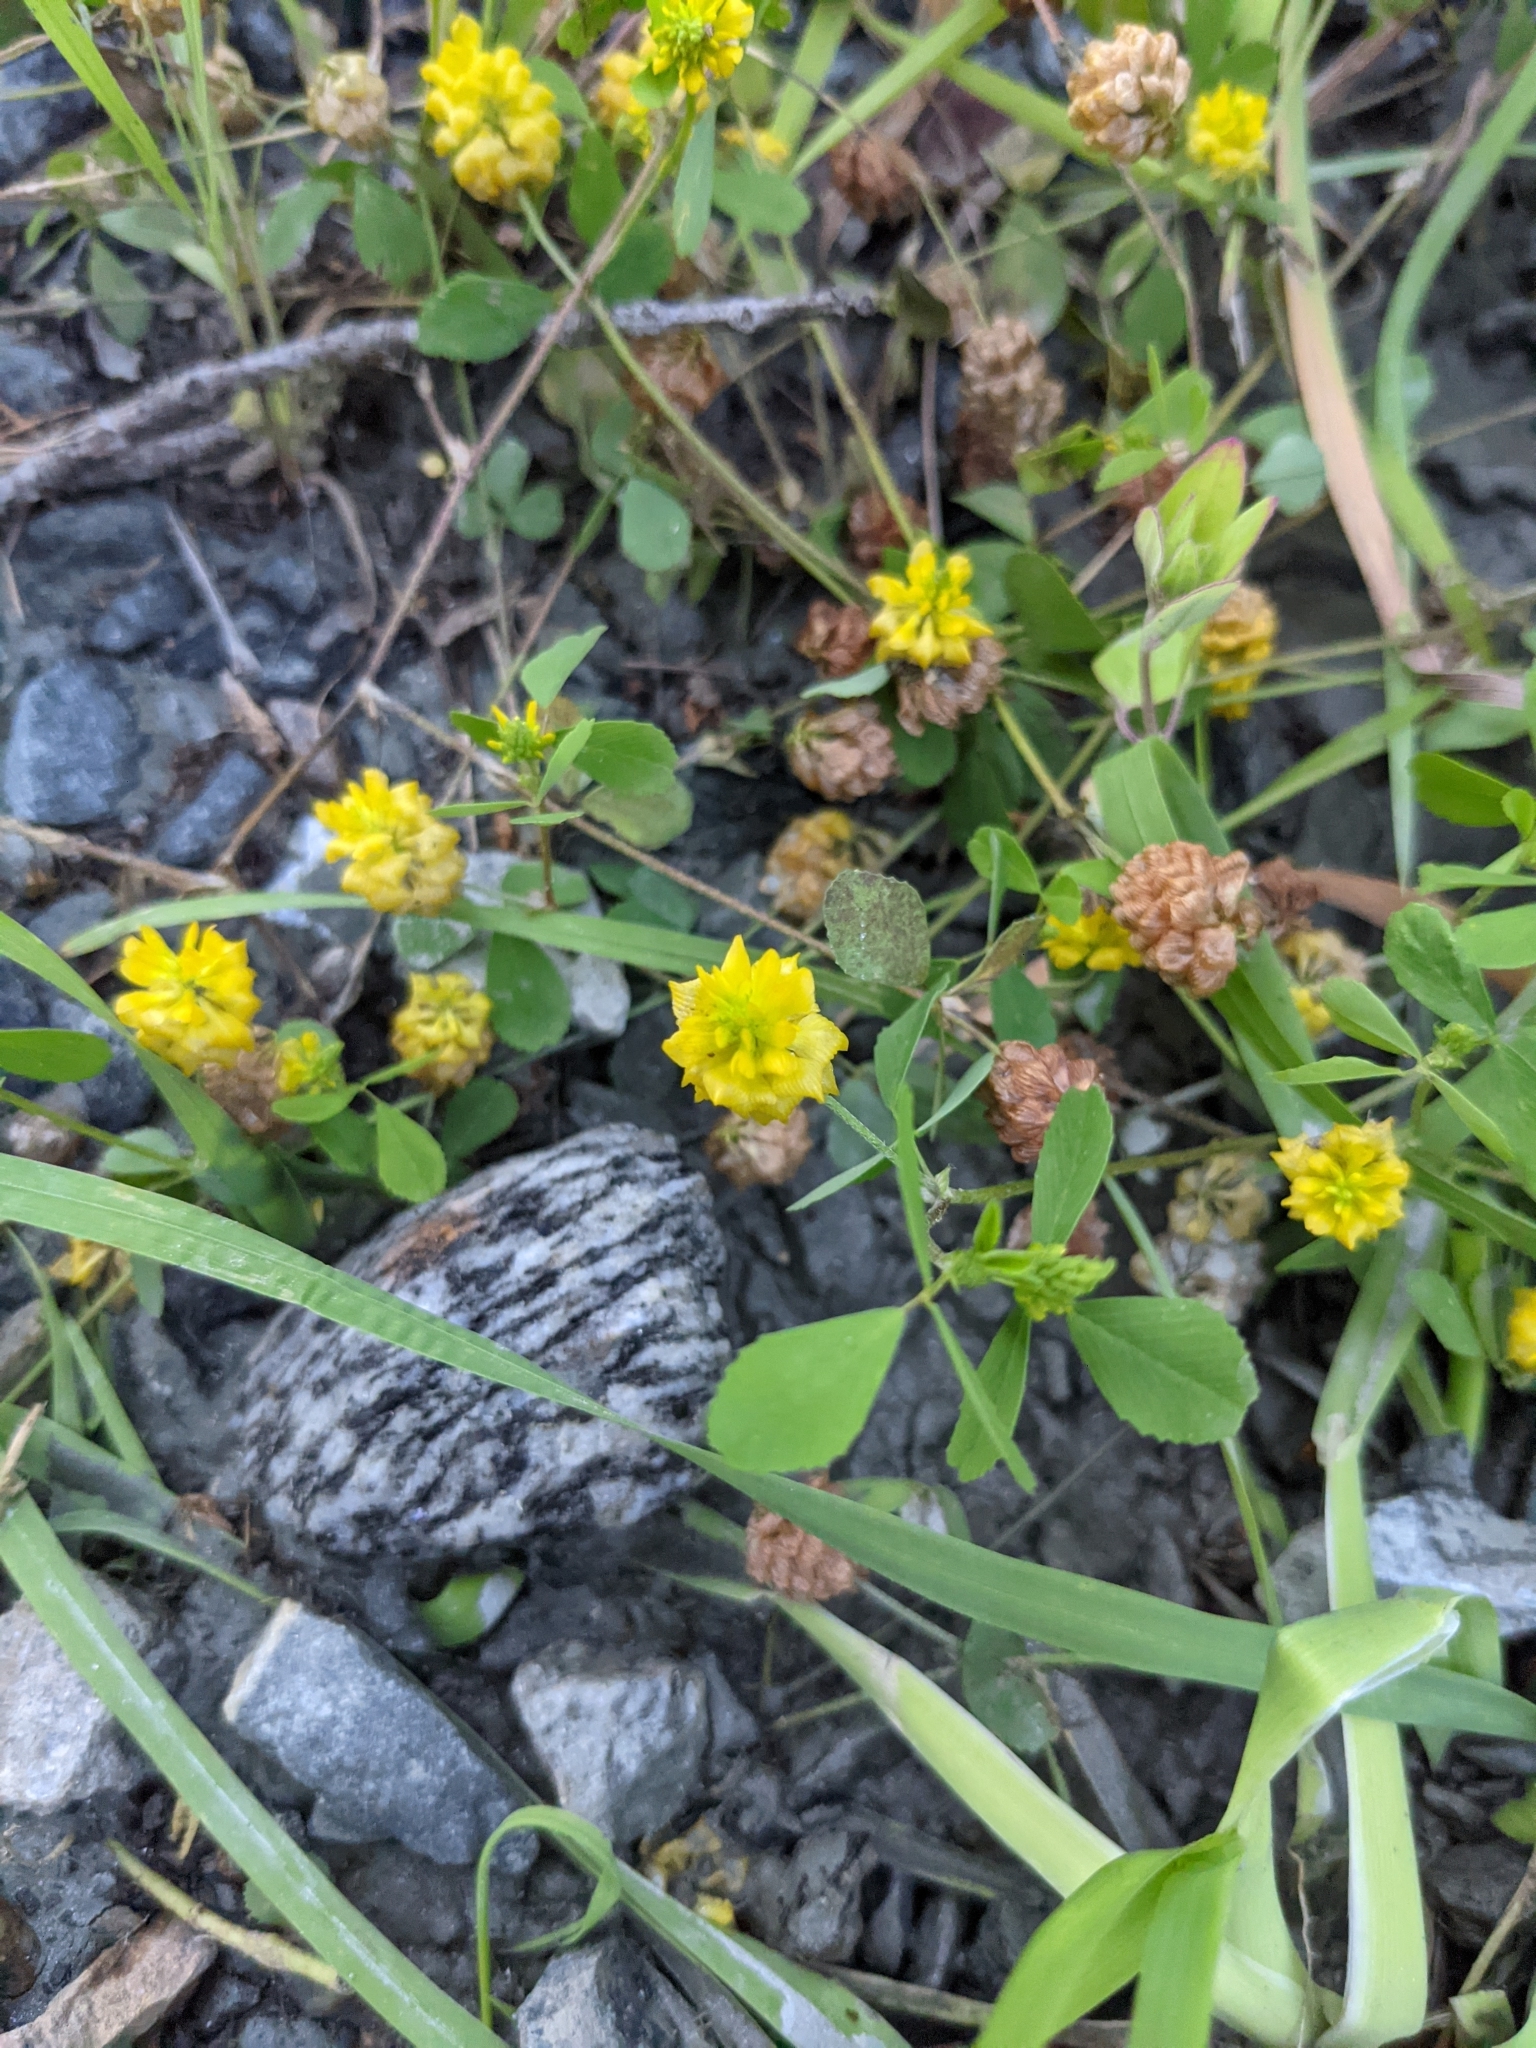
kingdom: Plantae
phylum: Tracheophyta
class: Magnoliopsida
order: Fabales
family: Fabaceae
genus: Trifolium
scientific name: Trifolium campestre
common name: Field clover
